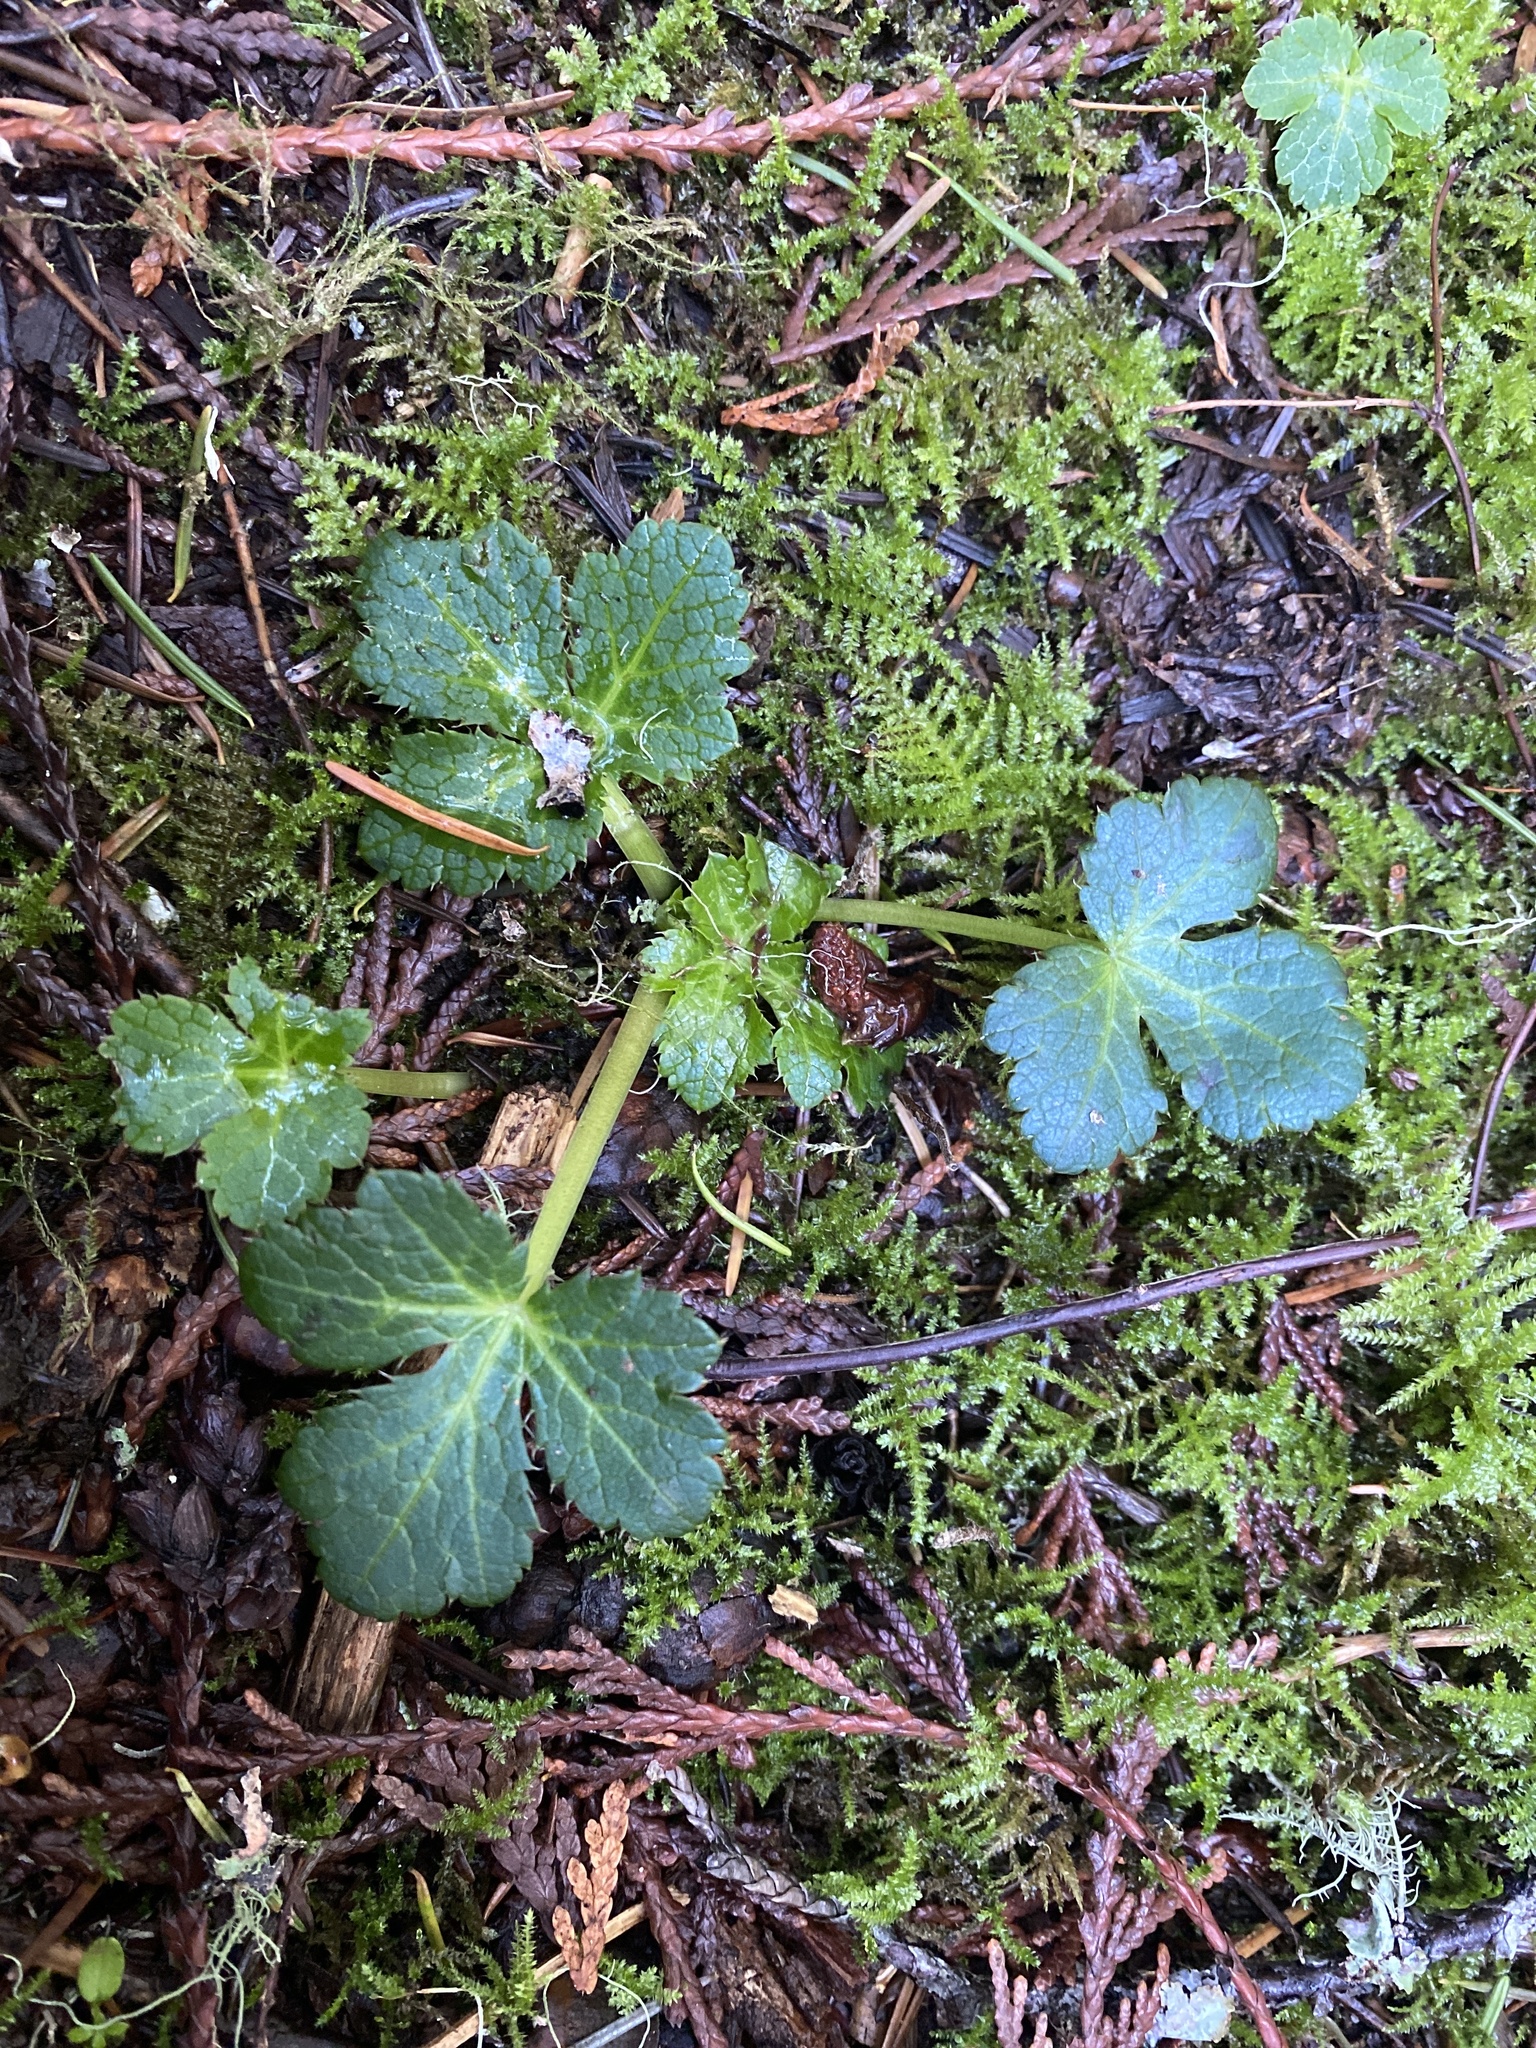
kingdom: Plantae
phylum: Tracheophyta
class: Magnoliopsida
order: Apiales
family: Apiaceae
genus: Sanicula
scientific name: Sanicula crassicaulis
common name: Western snakeroot
